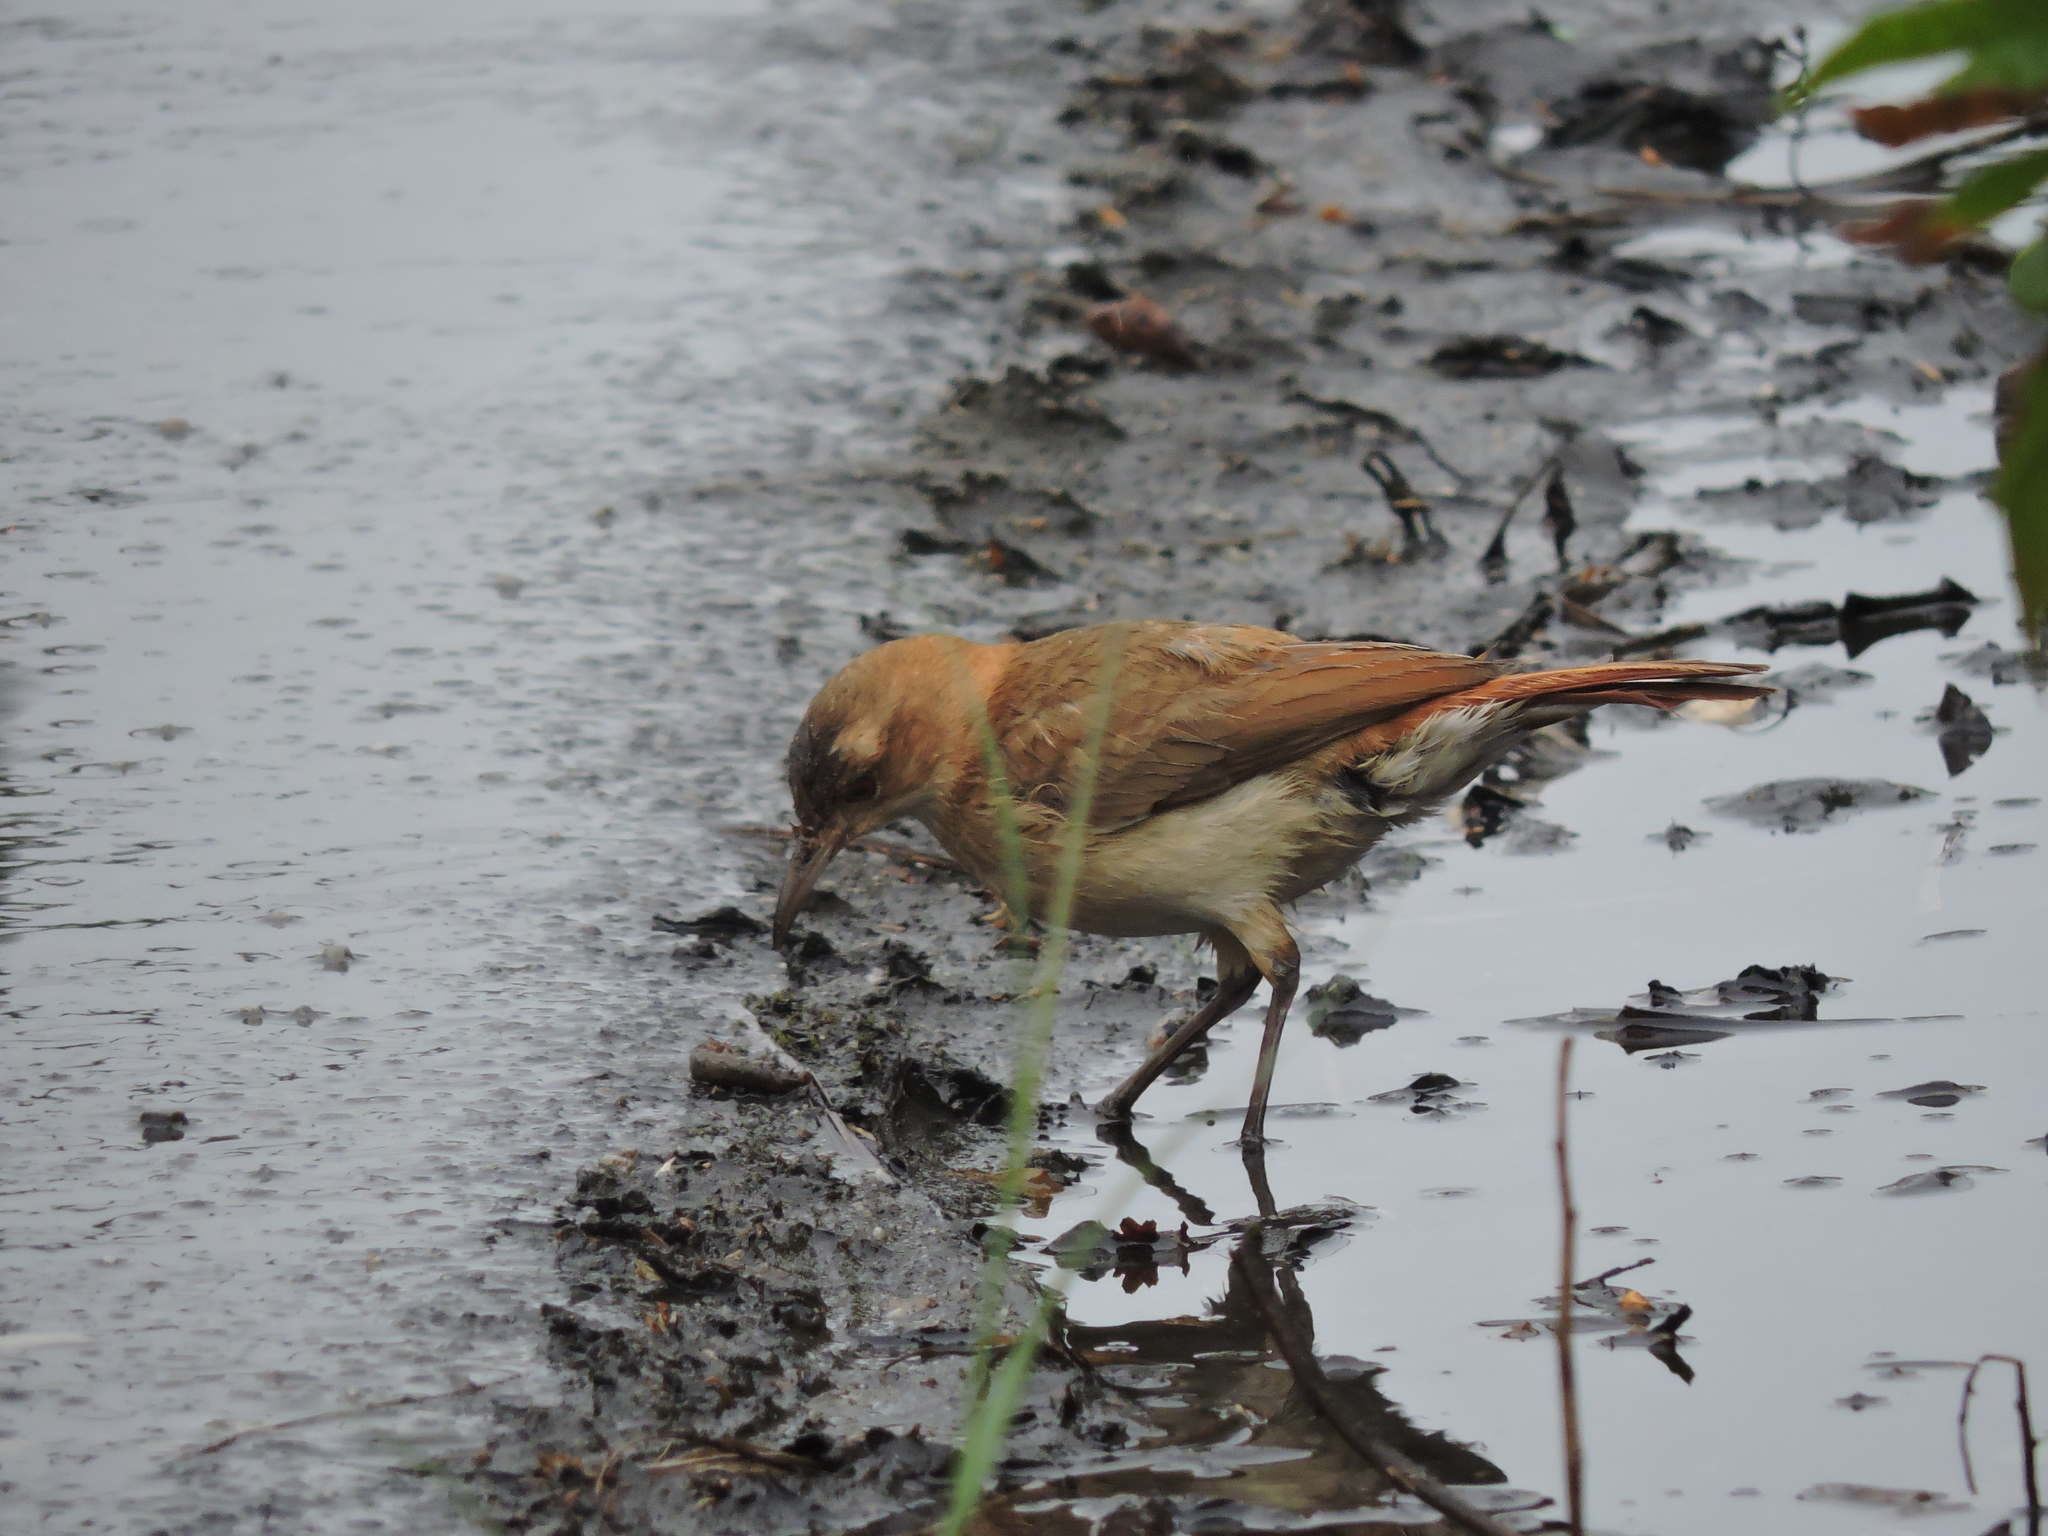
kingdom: Animalia
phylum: Chordata
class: Aves
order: Passeriformes
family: Furnariidae
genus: Furnarius
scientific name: Furnarius rufus
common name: Rufous hornero
